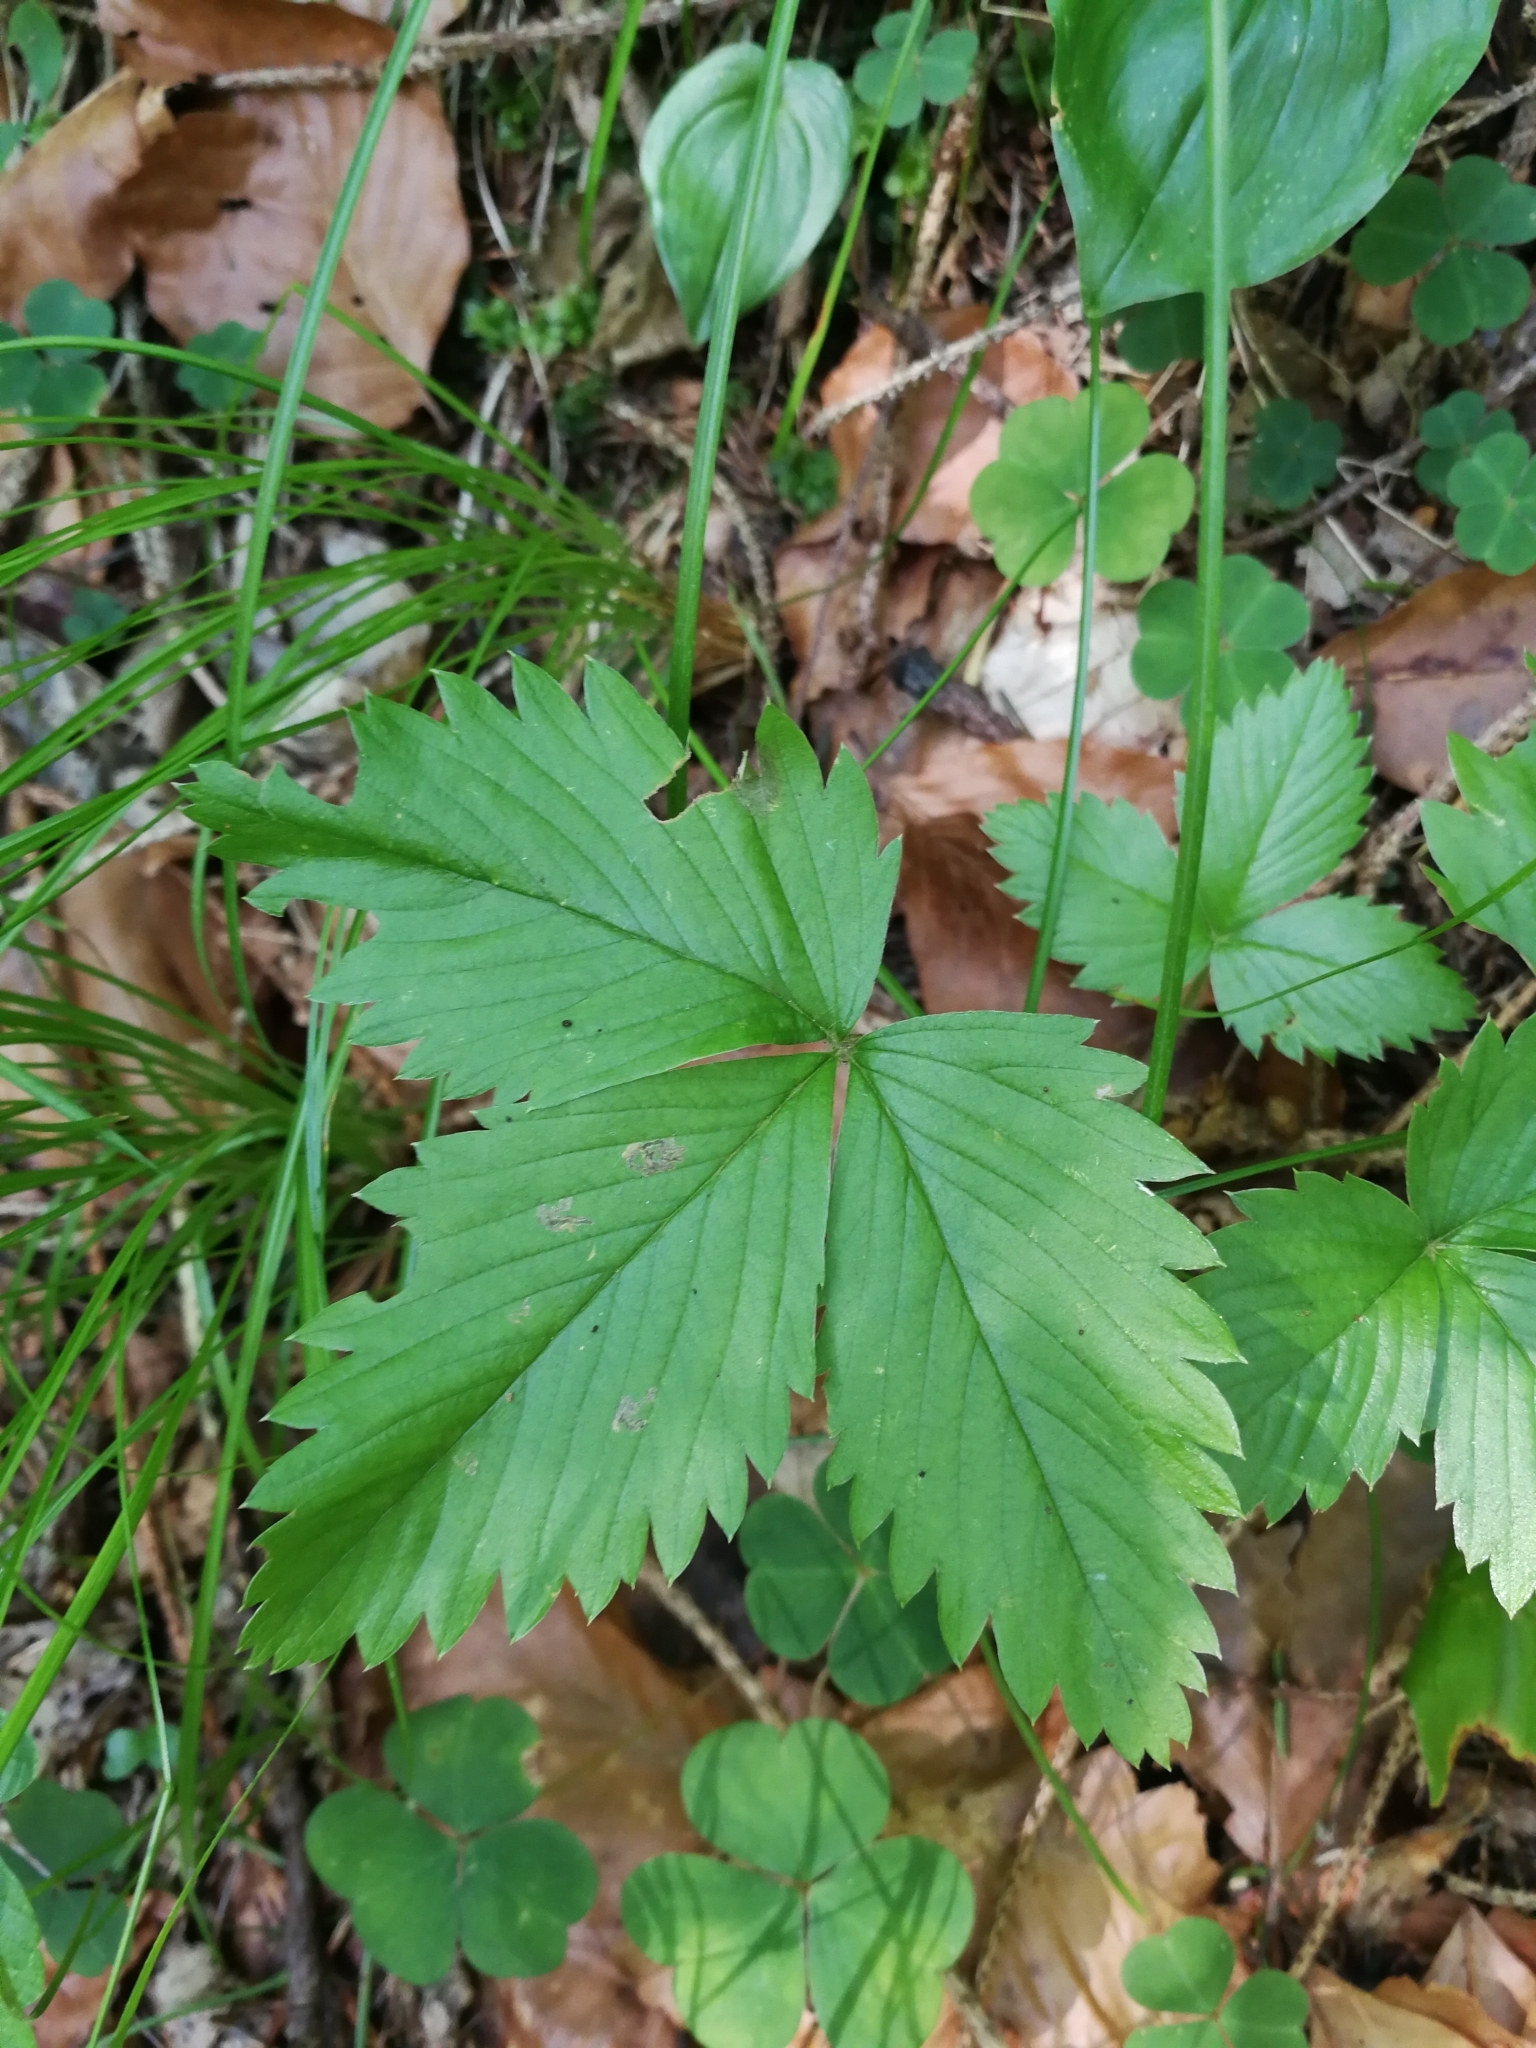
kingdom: Plantae
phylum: Tracheophyta
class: Magnoliopsida
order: Rosales
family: Rosaceae
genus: Fragaria
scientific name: Fragaria vesca
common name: Wild strawberry
